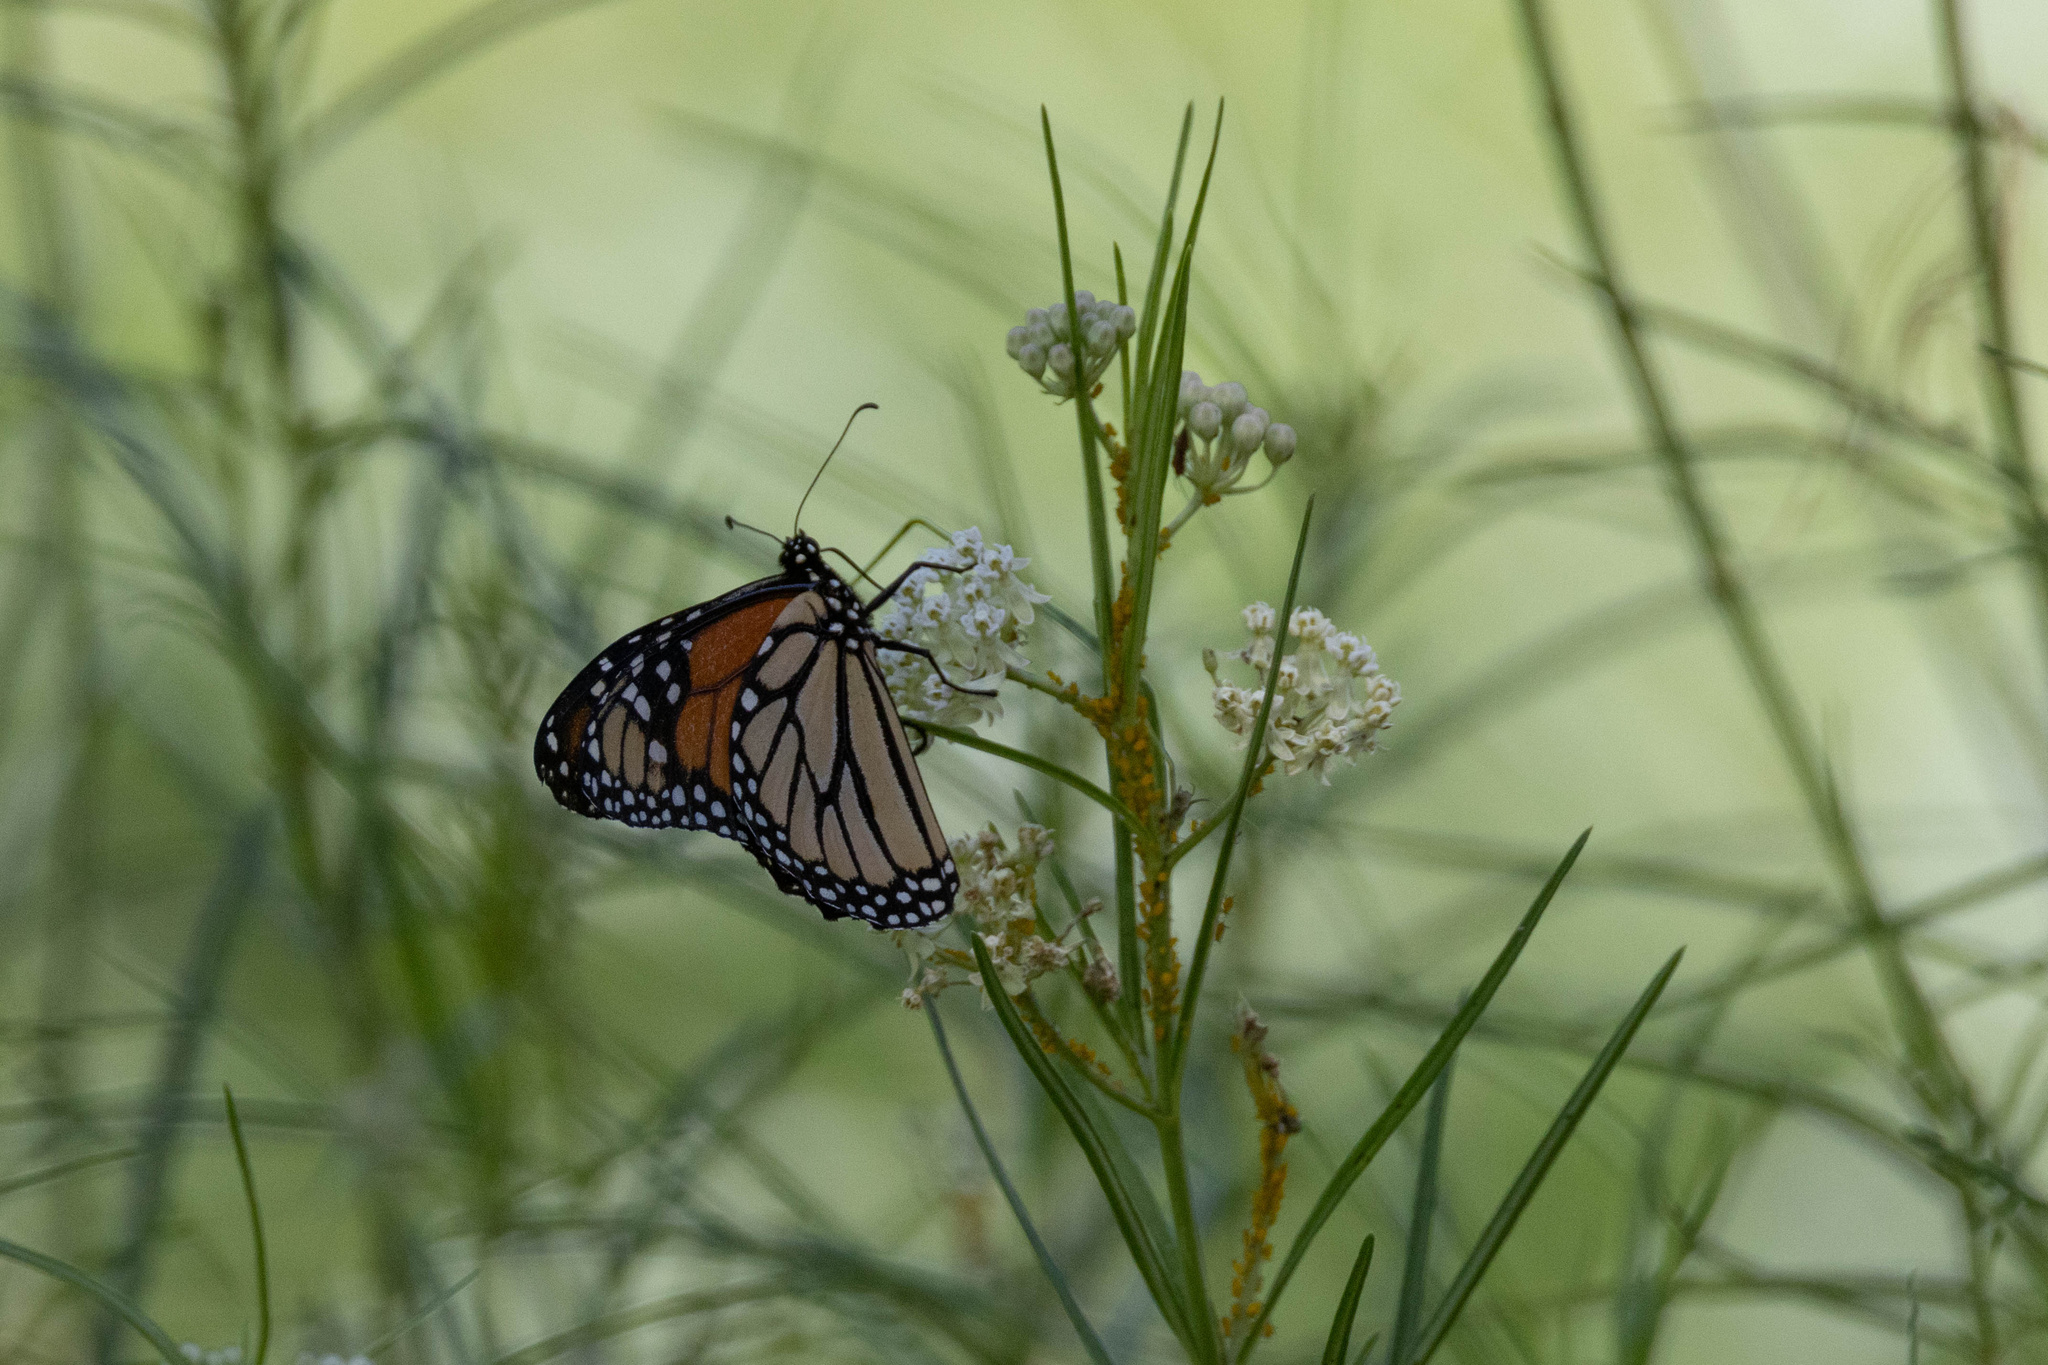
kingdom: Animalia
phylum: Arthropoda
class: Insecta
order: Lepidoptera
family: Nymphalidae
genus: Danaus
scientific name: Danaus plexippus
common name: Monarch
